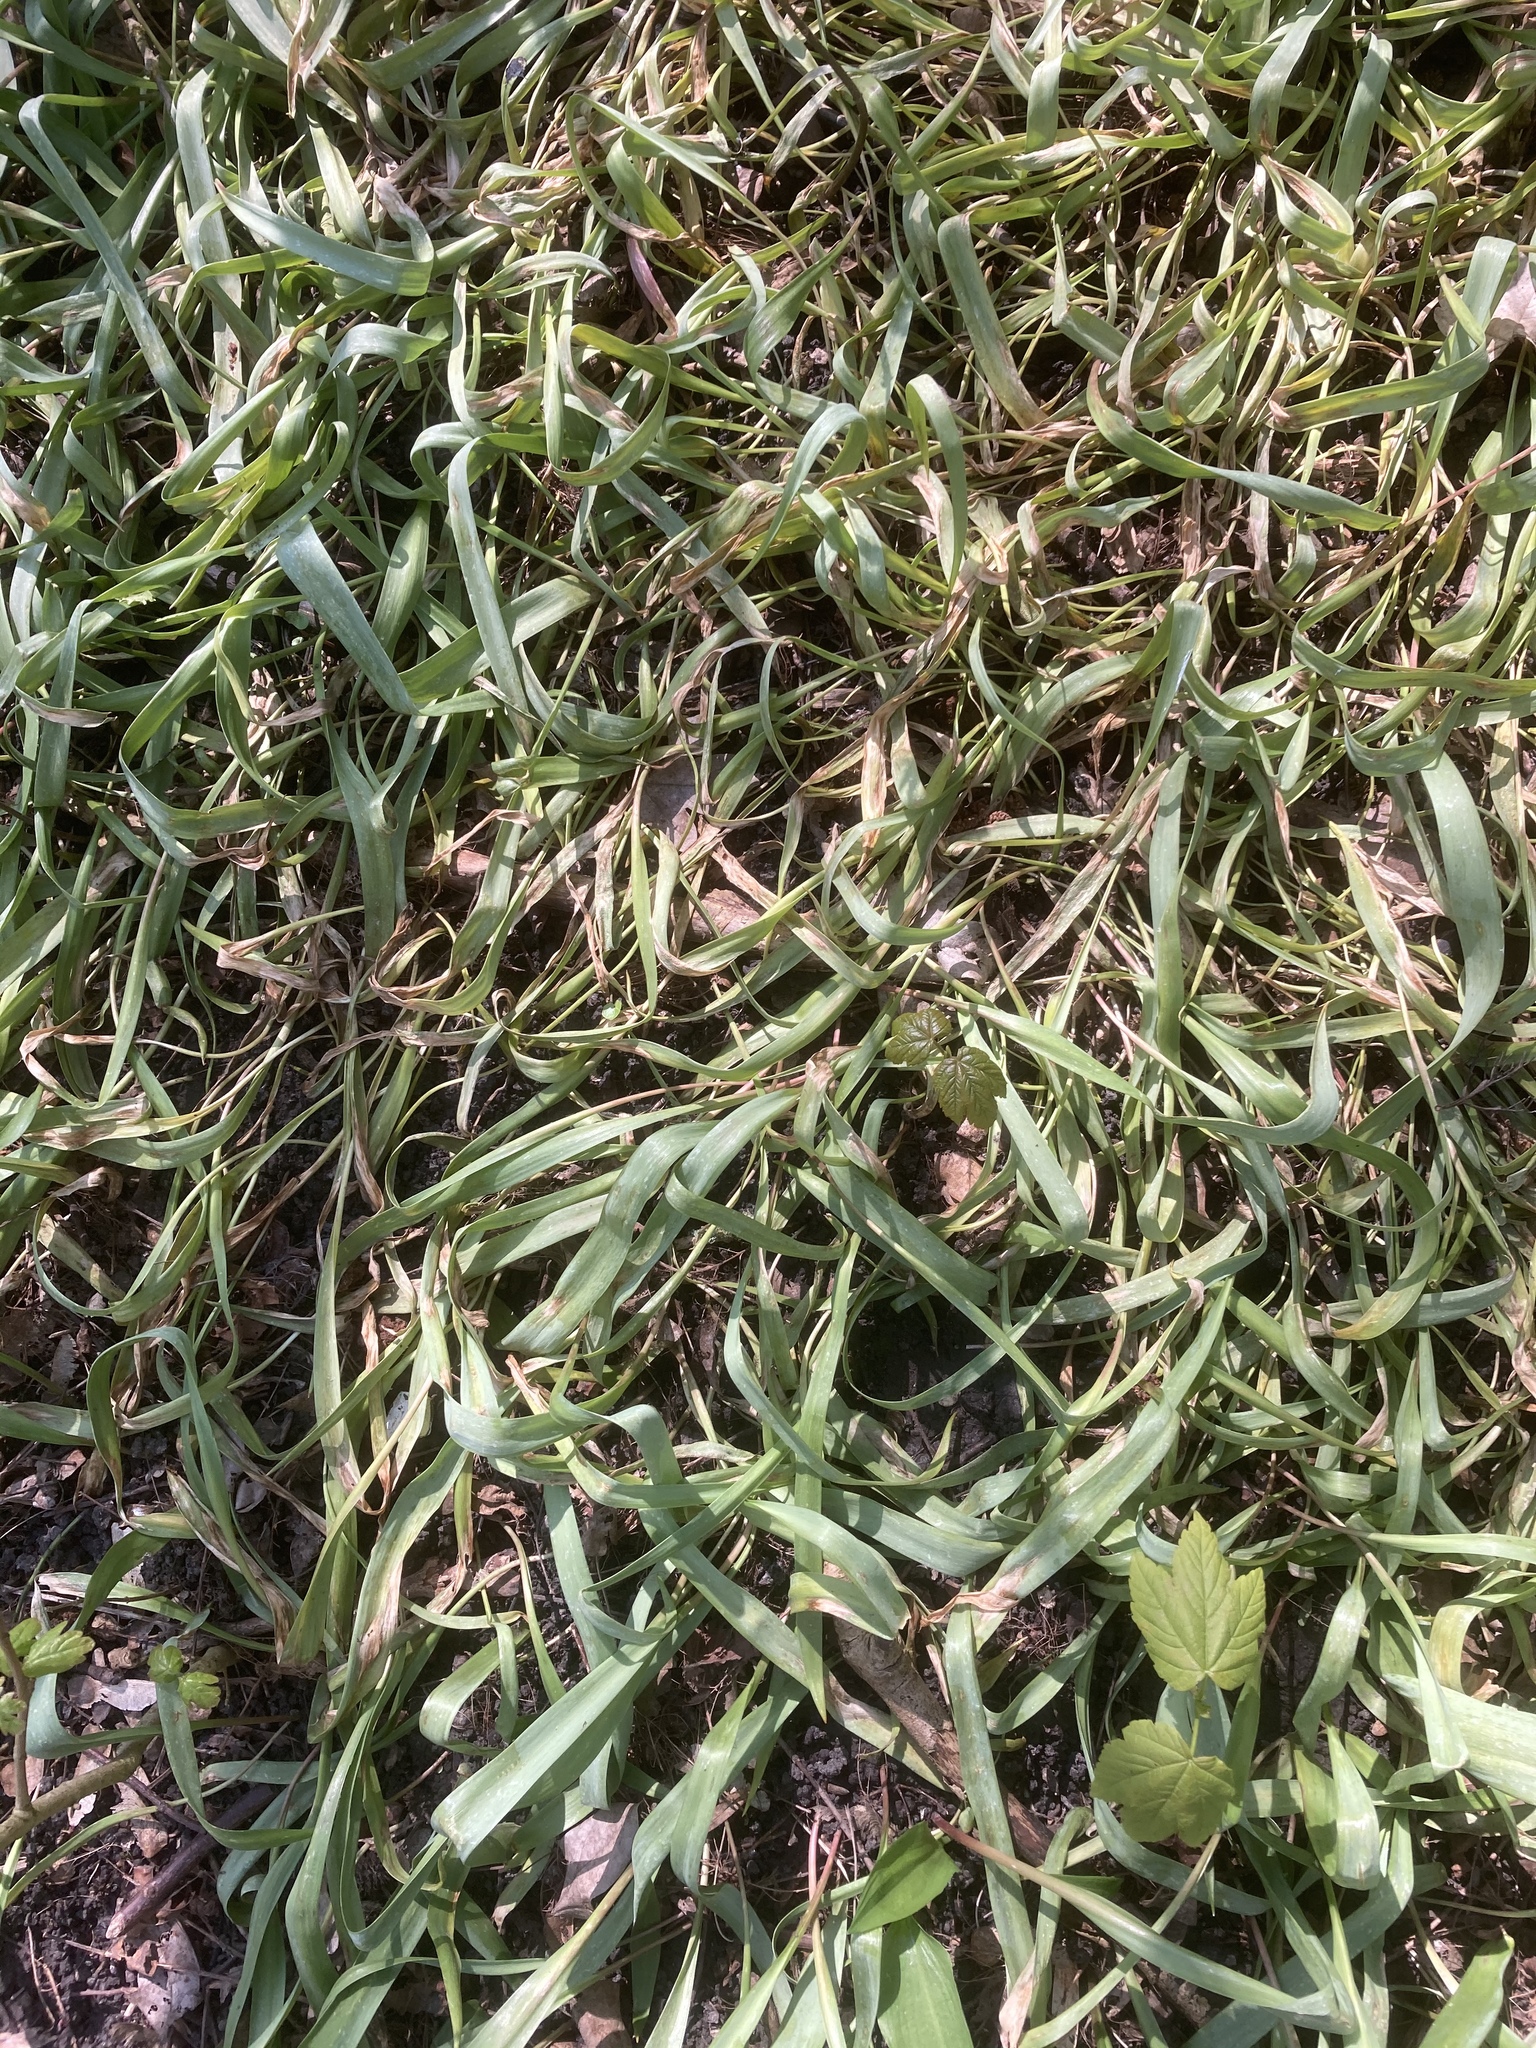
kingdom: Plantae
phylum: Tracheophyta
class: Liliopsida
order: Liliales
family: Liliaceae
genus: Tulipa
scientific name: Tulipa sylvestris
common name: Wild tulip
